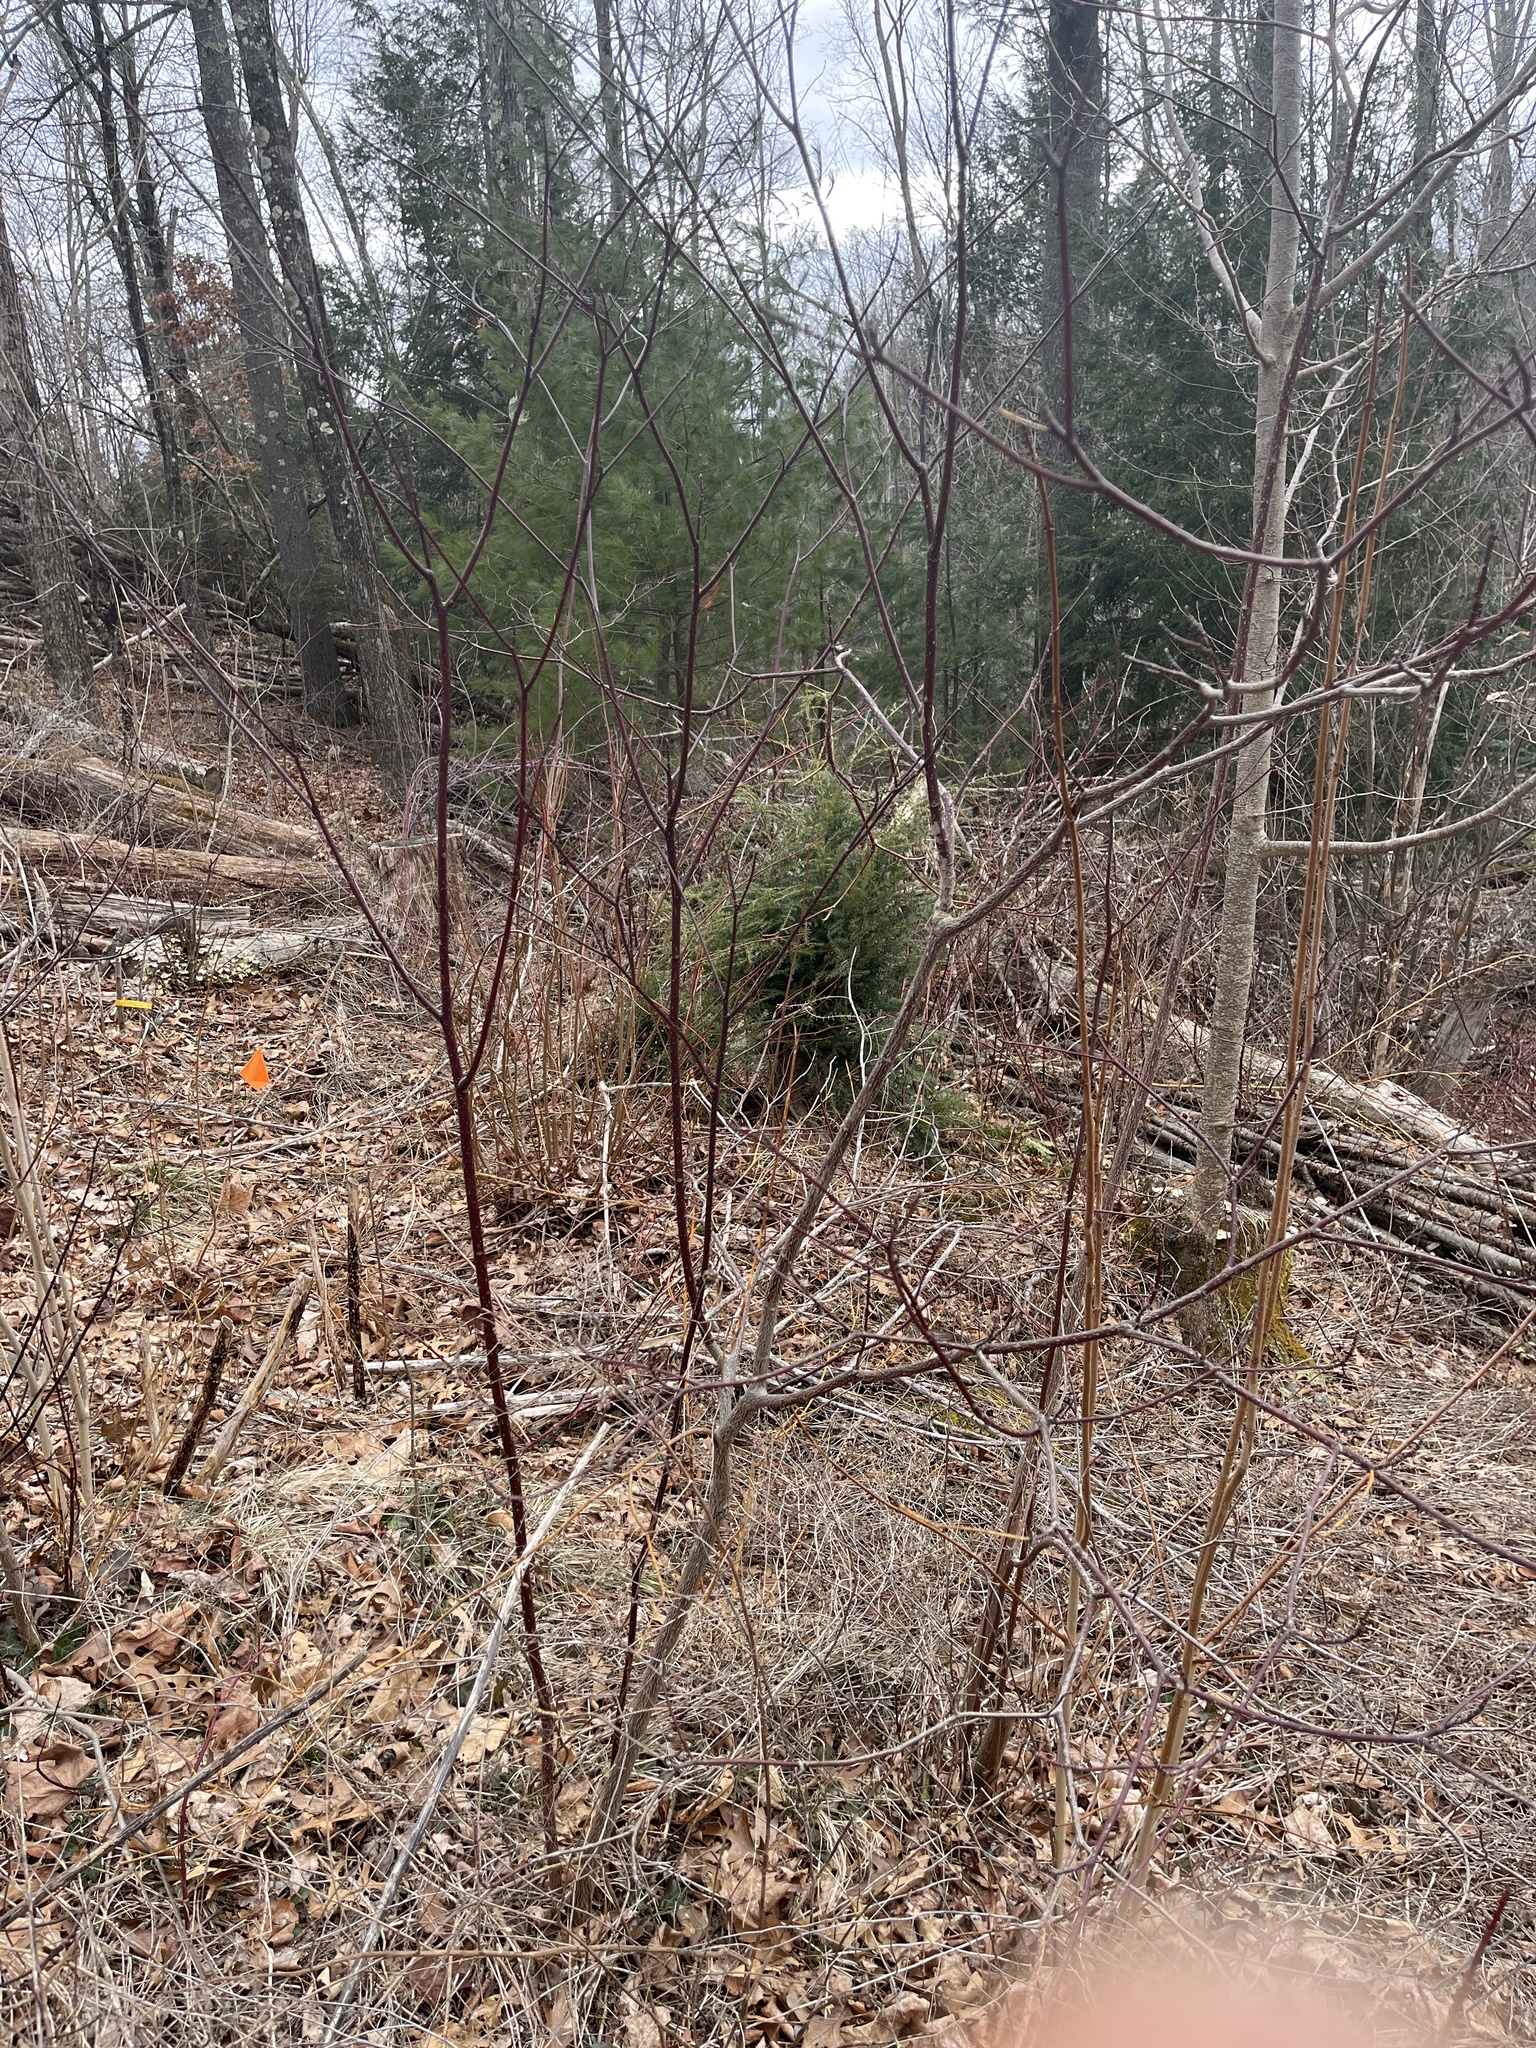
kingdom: Plantae
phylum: Tracheophyta
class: Magnoliopsida
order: Cornales
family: Cornaceae
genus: Cornus
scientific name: Cornus alternifolia
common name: Pagoda dogwood
